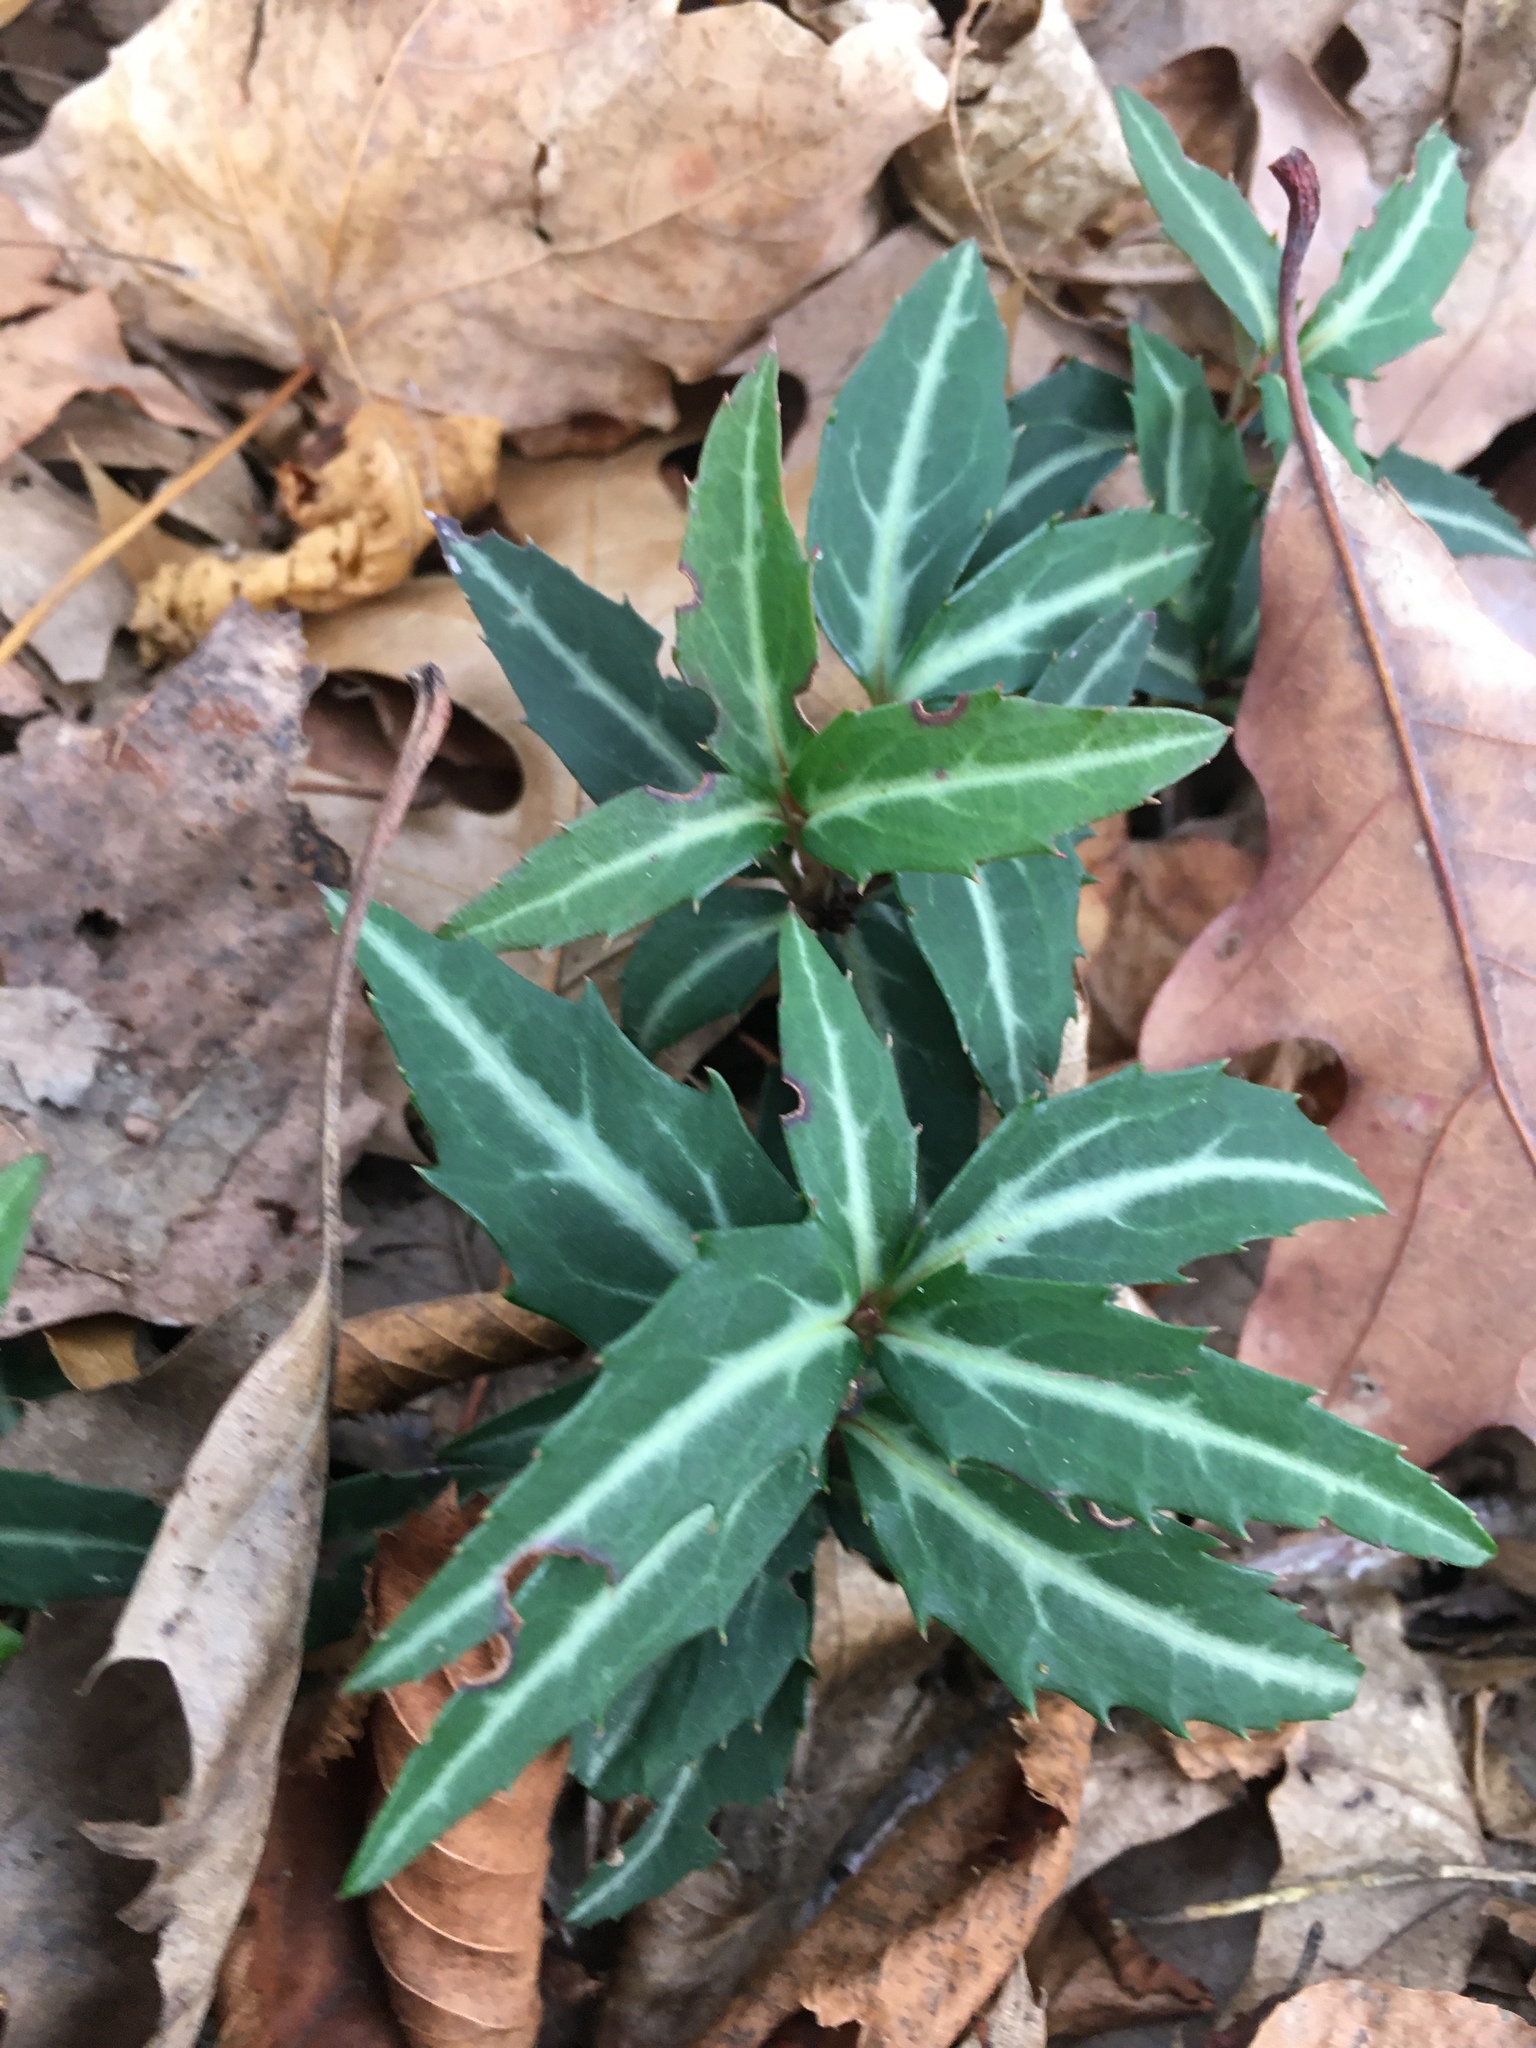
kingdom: Plantae
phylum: Tracheophyta
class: Magnoliopsida
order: Ericales
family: Ericaceae
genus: Chimaphila
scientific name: Chimaphila maculata
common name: Spotted pipsissewa
